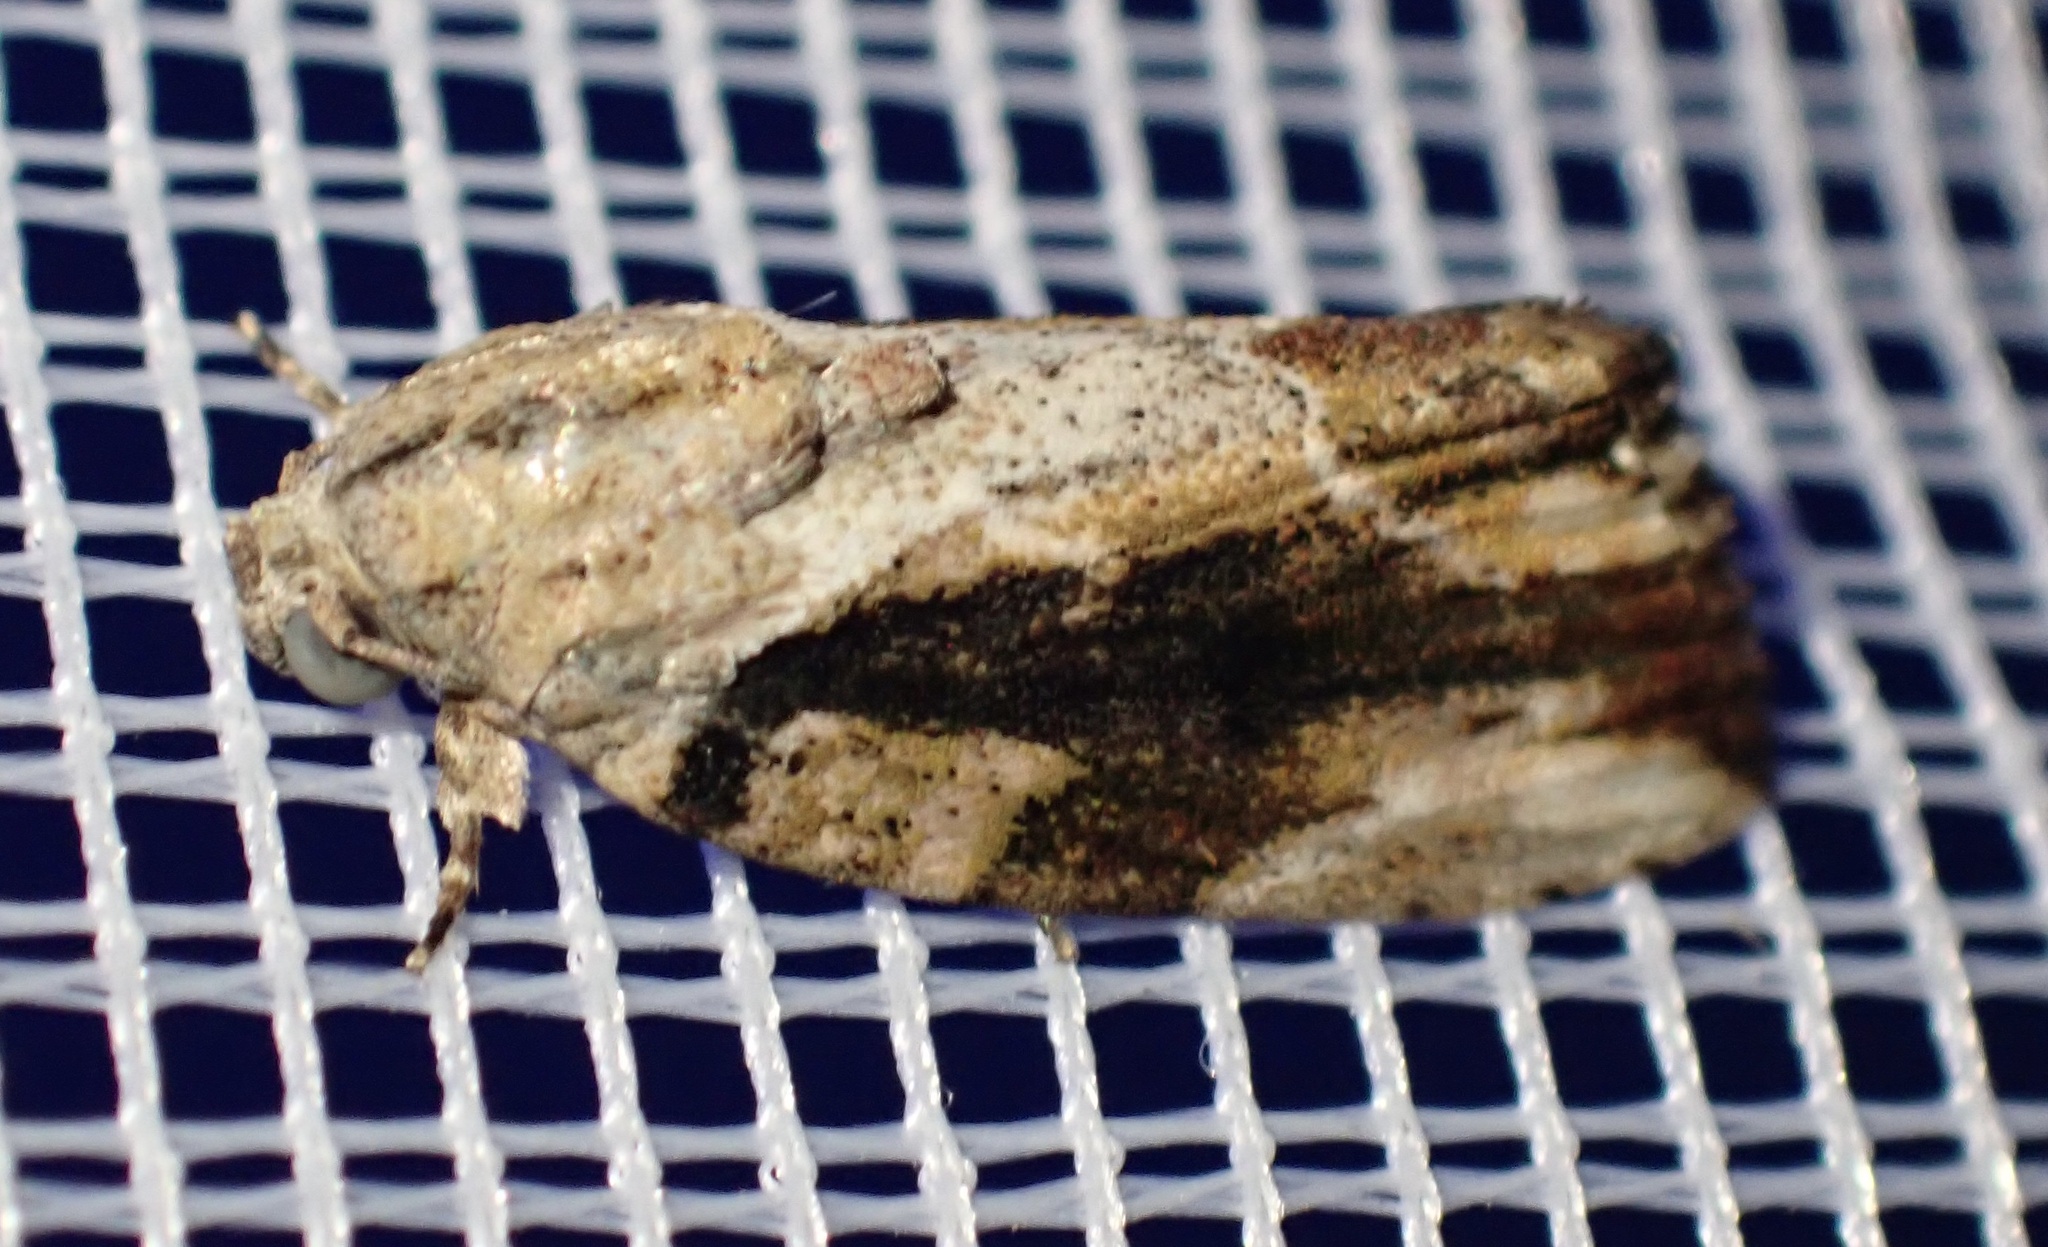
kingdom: Animalia
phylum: Arthropoda
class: Insecta
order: Lepidoptera
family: Nolidae
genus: Etanna
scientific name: Etanna breviuscula
